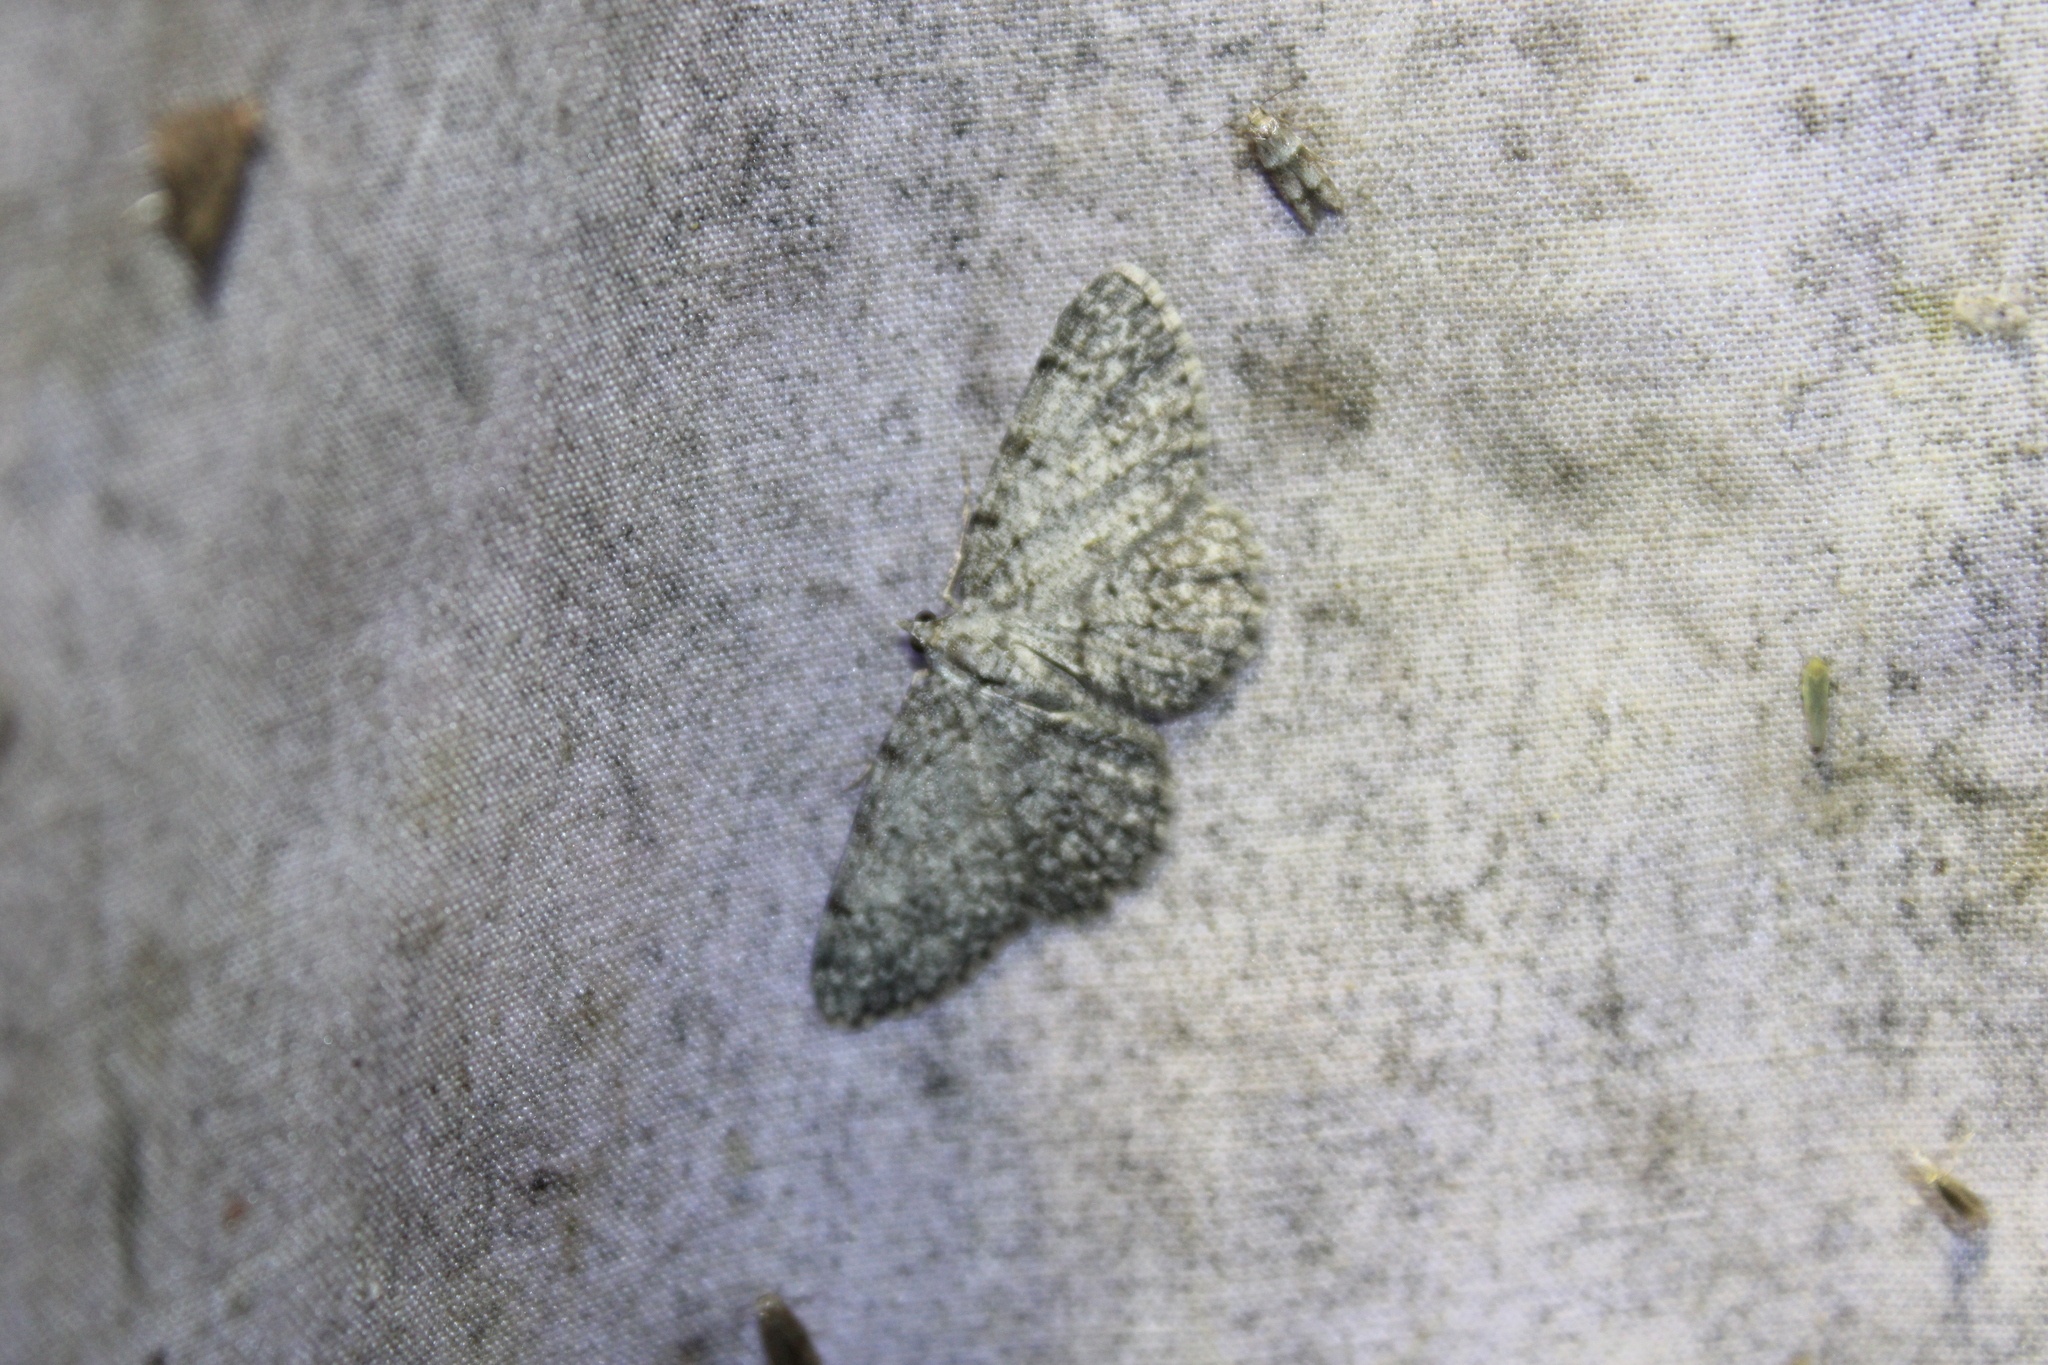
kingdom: Animalia
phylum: Arthropoda
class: Insecta
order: Lepidoptera
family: Geometridae
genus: Protoboarmia
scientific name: Protoboarmia porcelaria
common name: Porcelain gray
